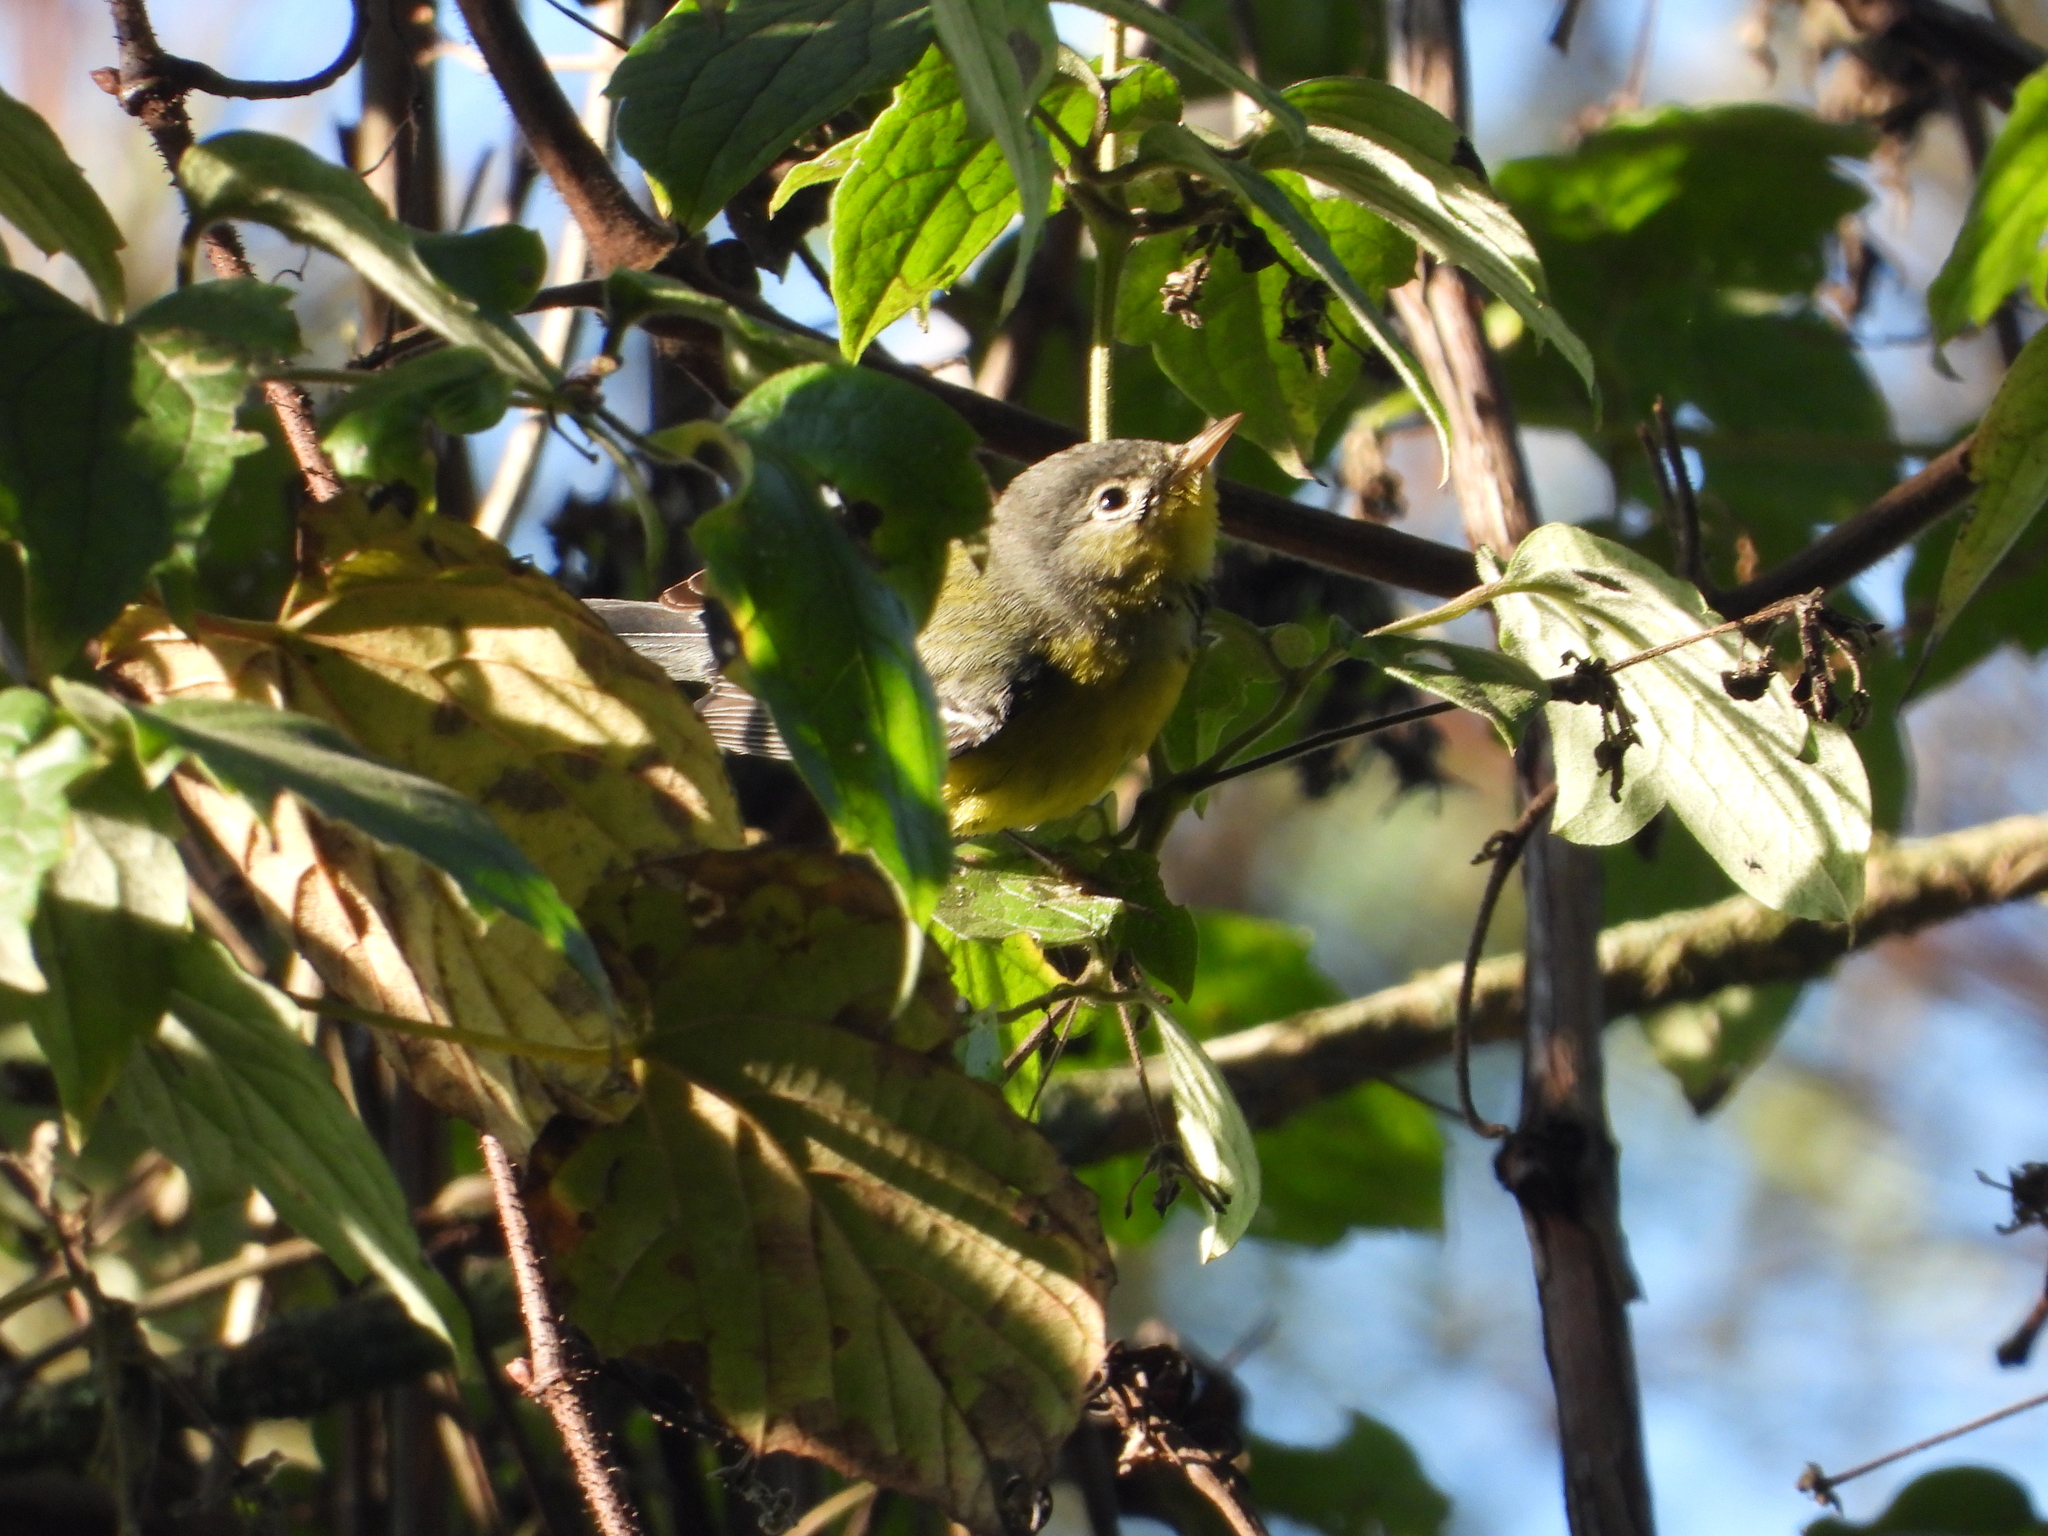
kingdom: Animalia
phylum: Chordata
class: Aves
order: Passeriformes
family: Parulidae
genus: Setophaga
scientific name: Setophaga magnolia
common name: Magnolia warbler
